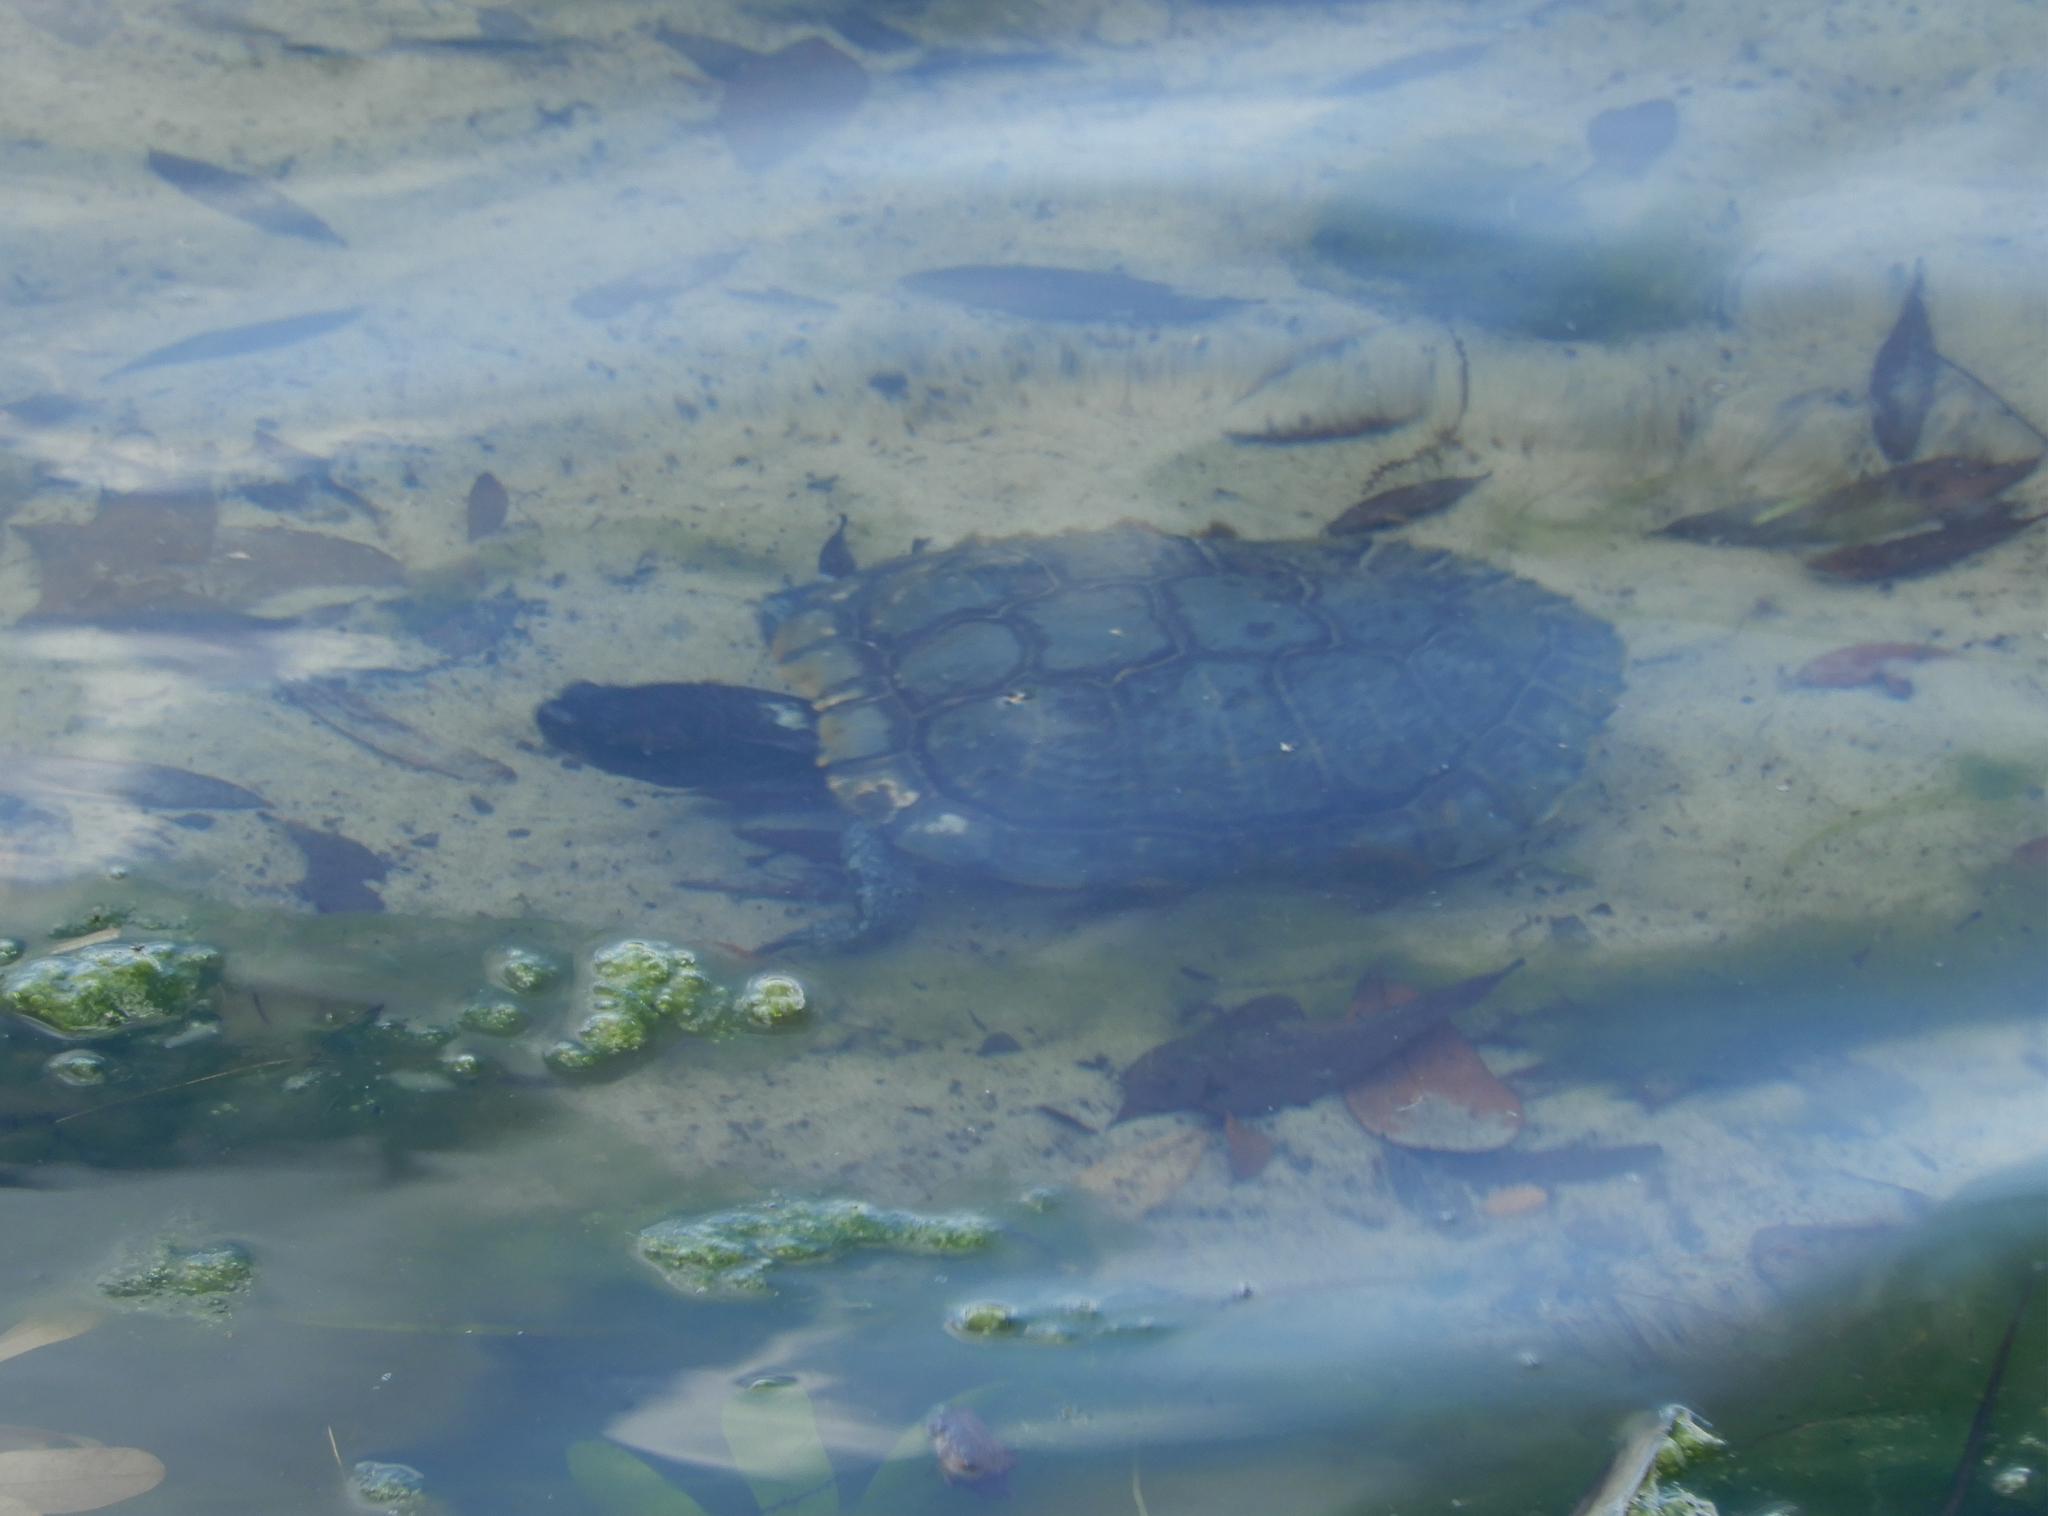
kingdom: Animalia
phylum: Chordata
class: Testudines
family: Emydidae
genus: Trachemys
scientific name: Trachemys scripta
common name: Slider
